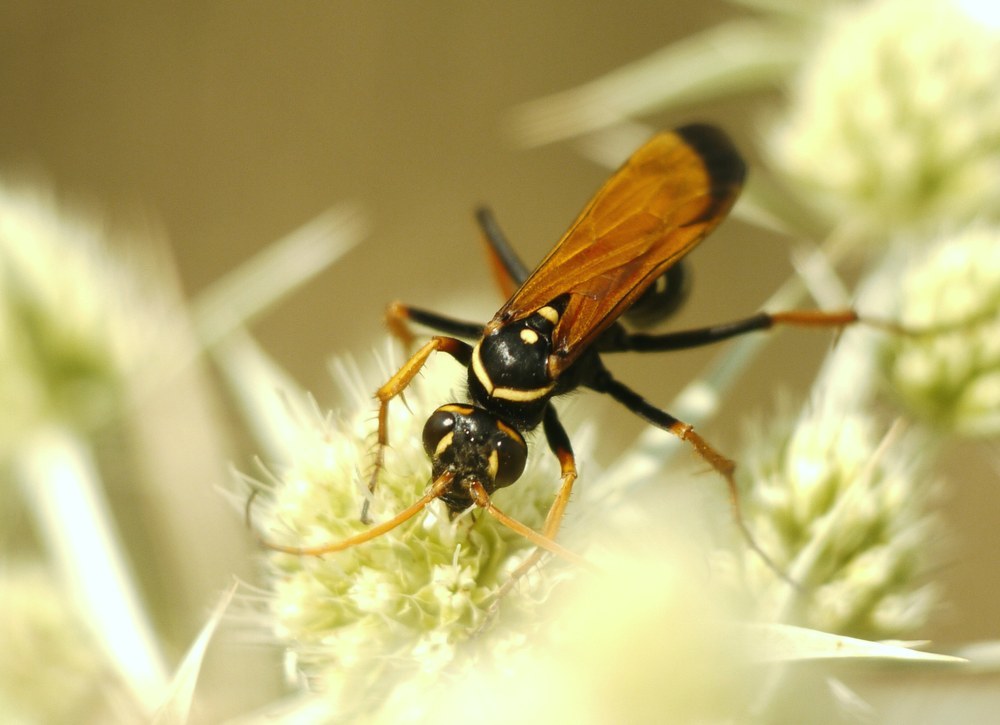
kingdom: Animalia
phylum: Arthropoda
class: Insecta
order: Hymenoptera
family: Pompilidae
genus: Parabatozonus
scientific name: Parabatozonus lacerticida
